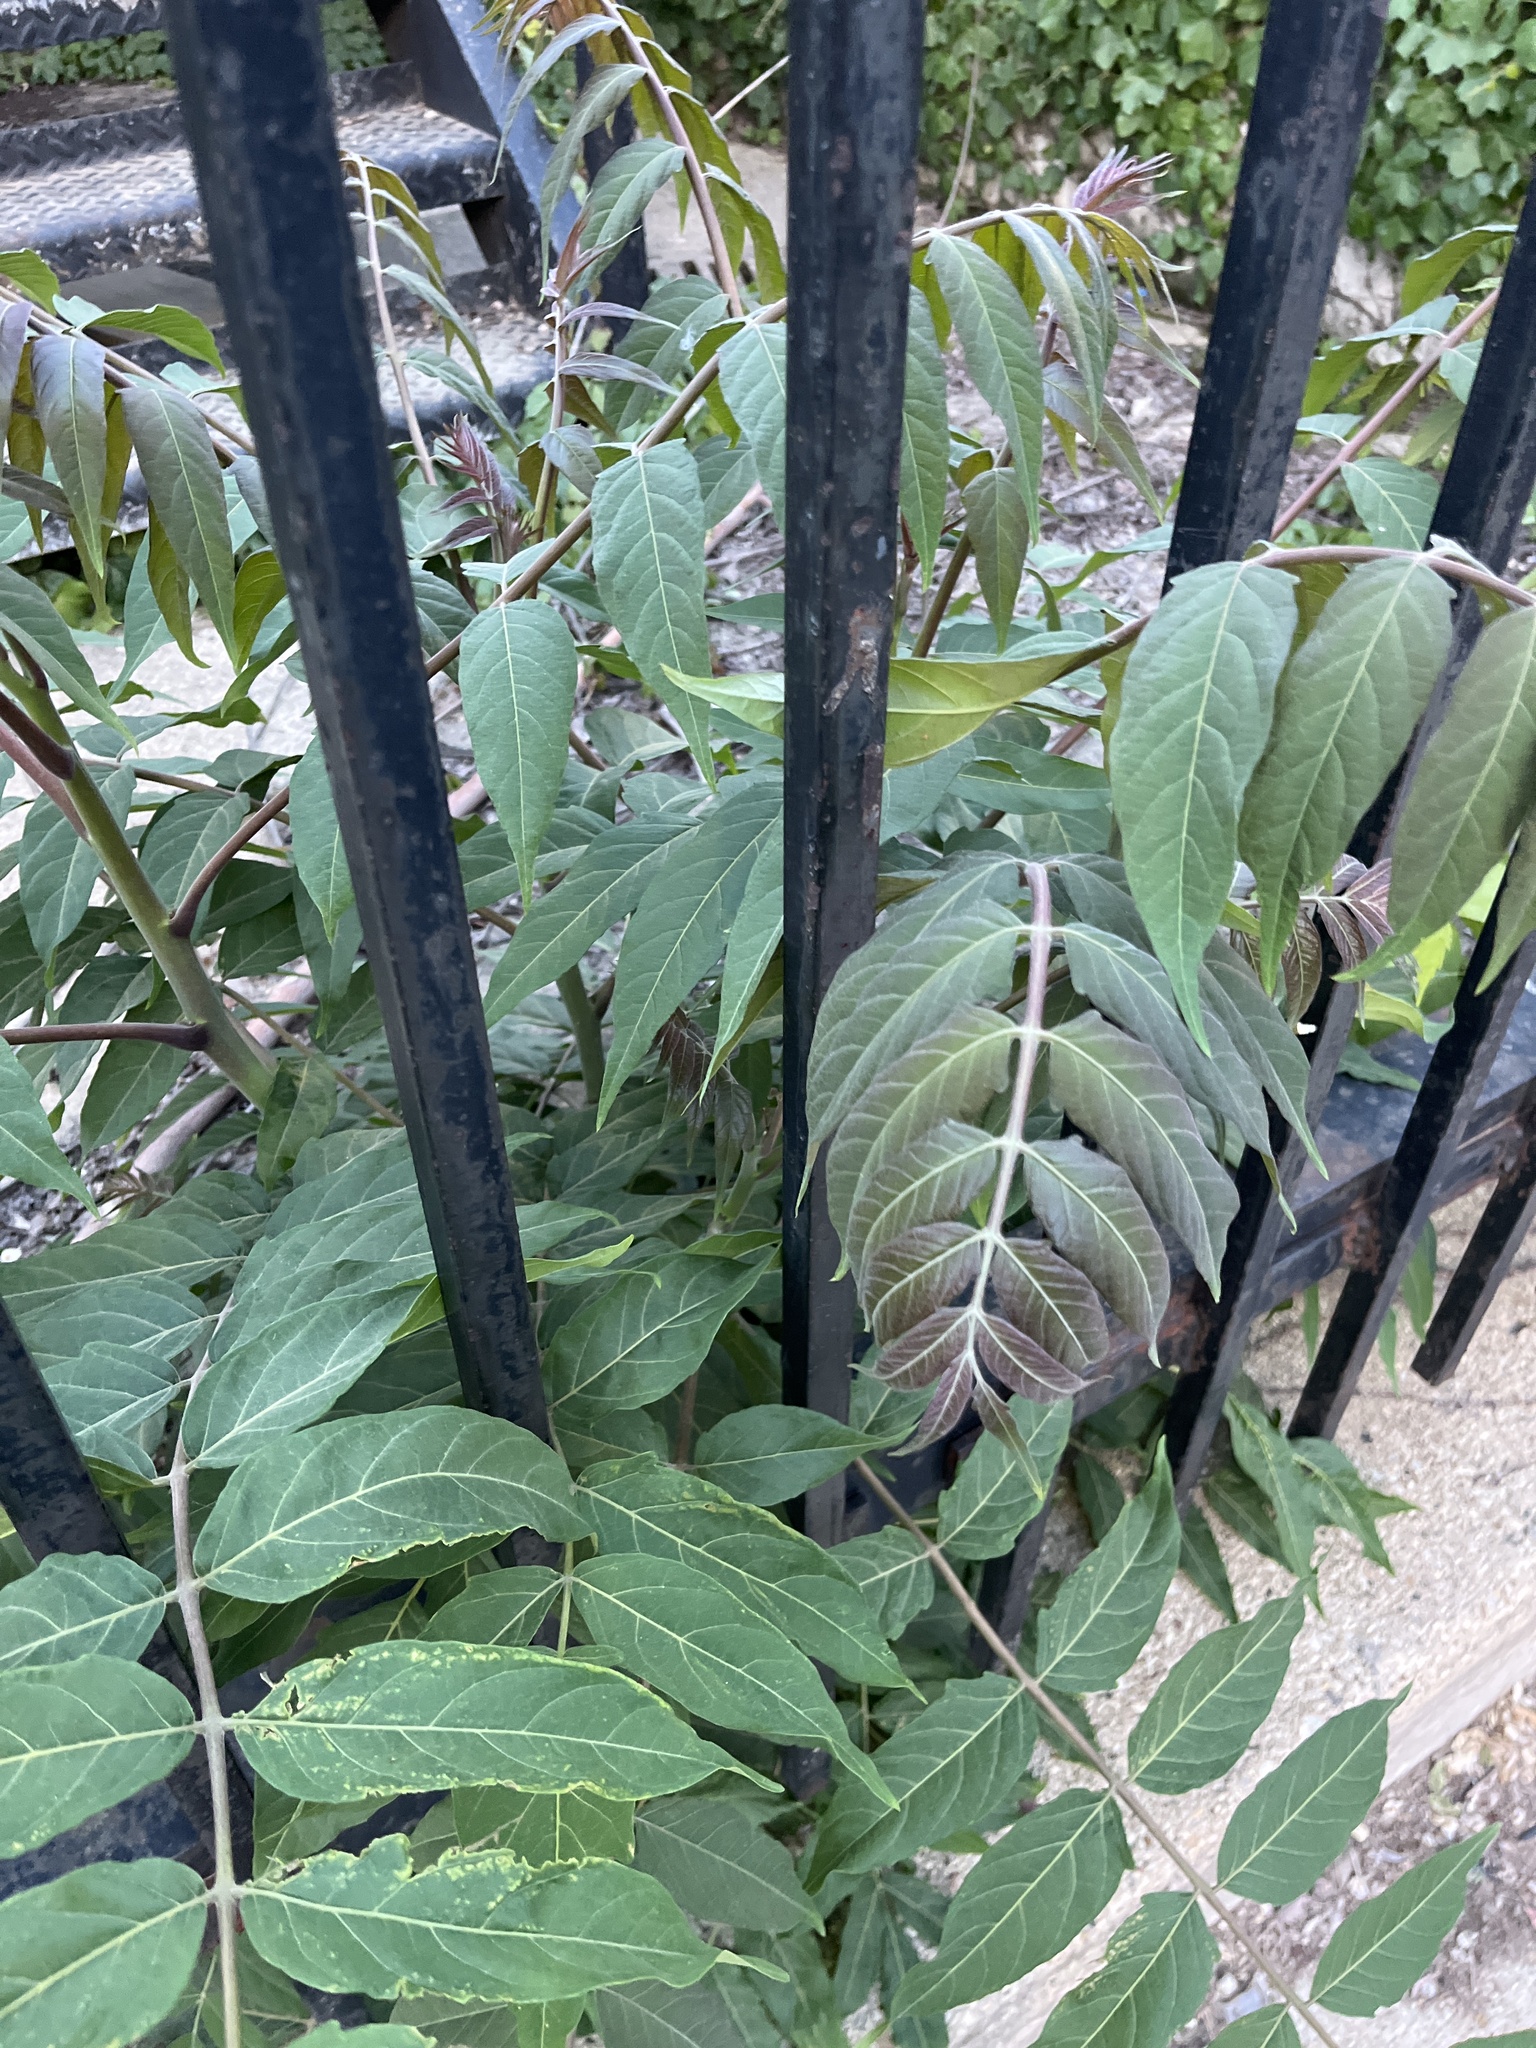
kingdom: Plantae
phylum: Tracheophyta
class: Magnoliopsida
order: Sapindales
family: Simaroubaceae
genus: Ailanthus
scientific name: Ailanthus altissima
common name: Tree-of-heaven
